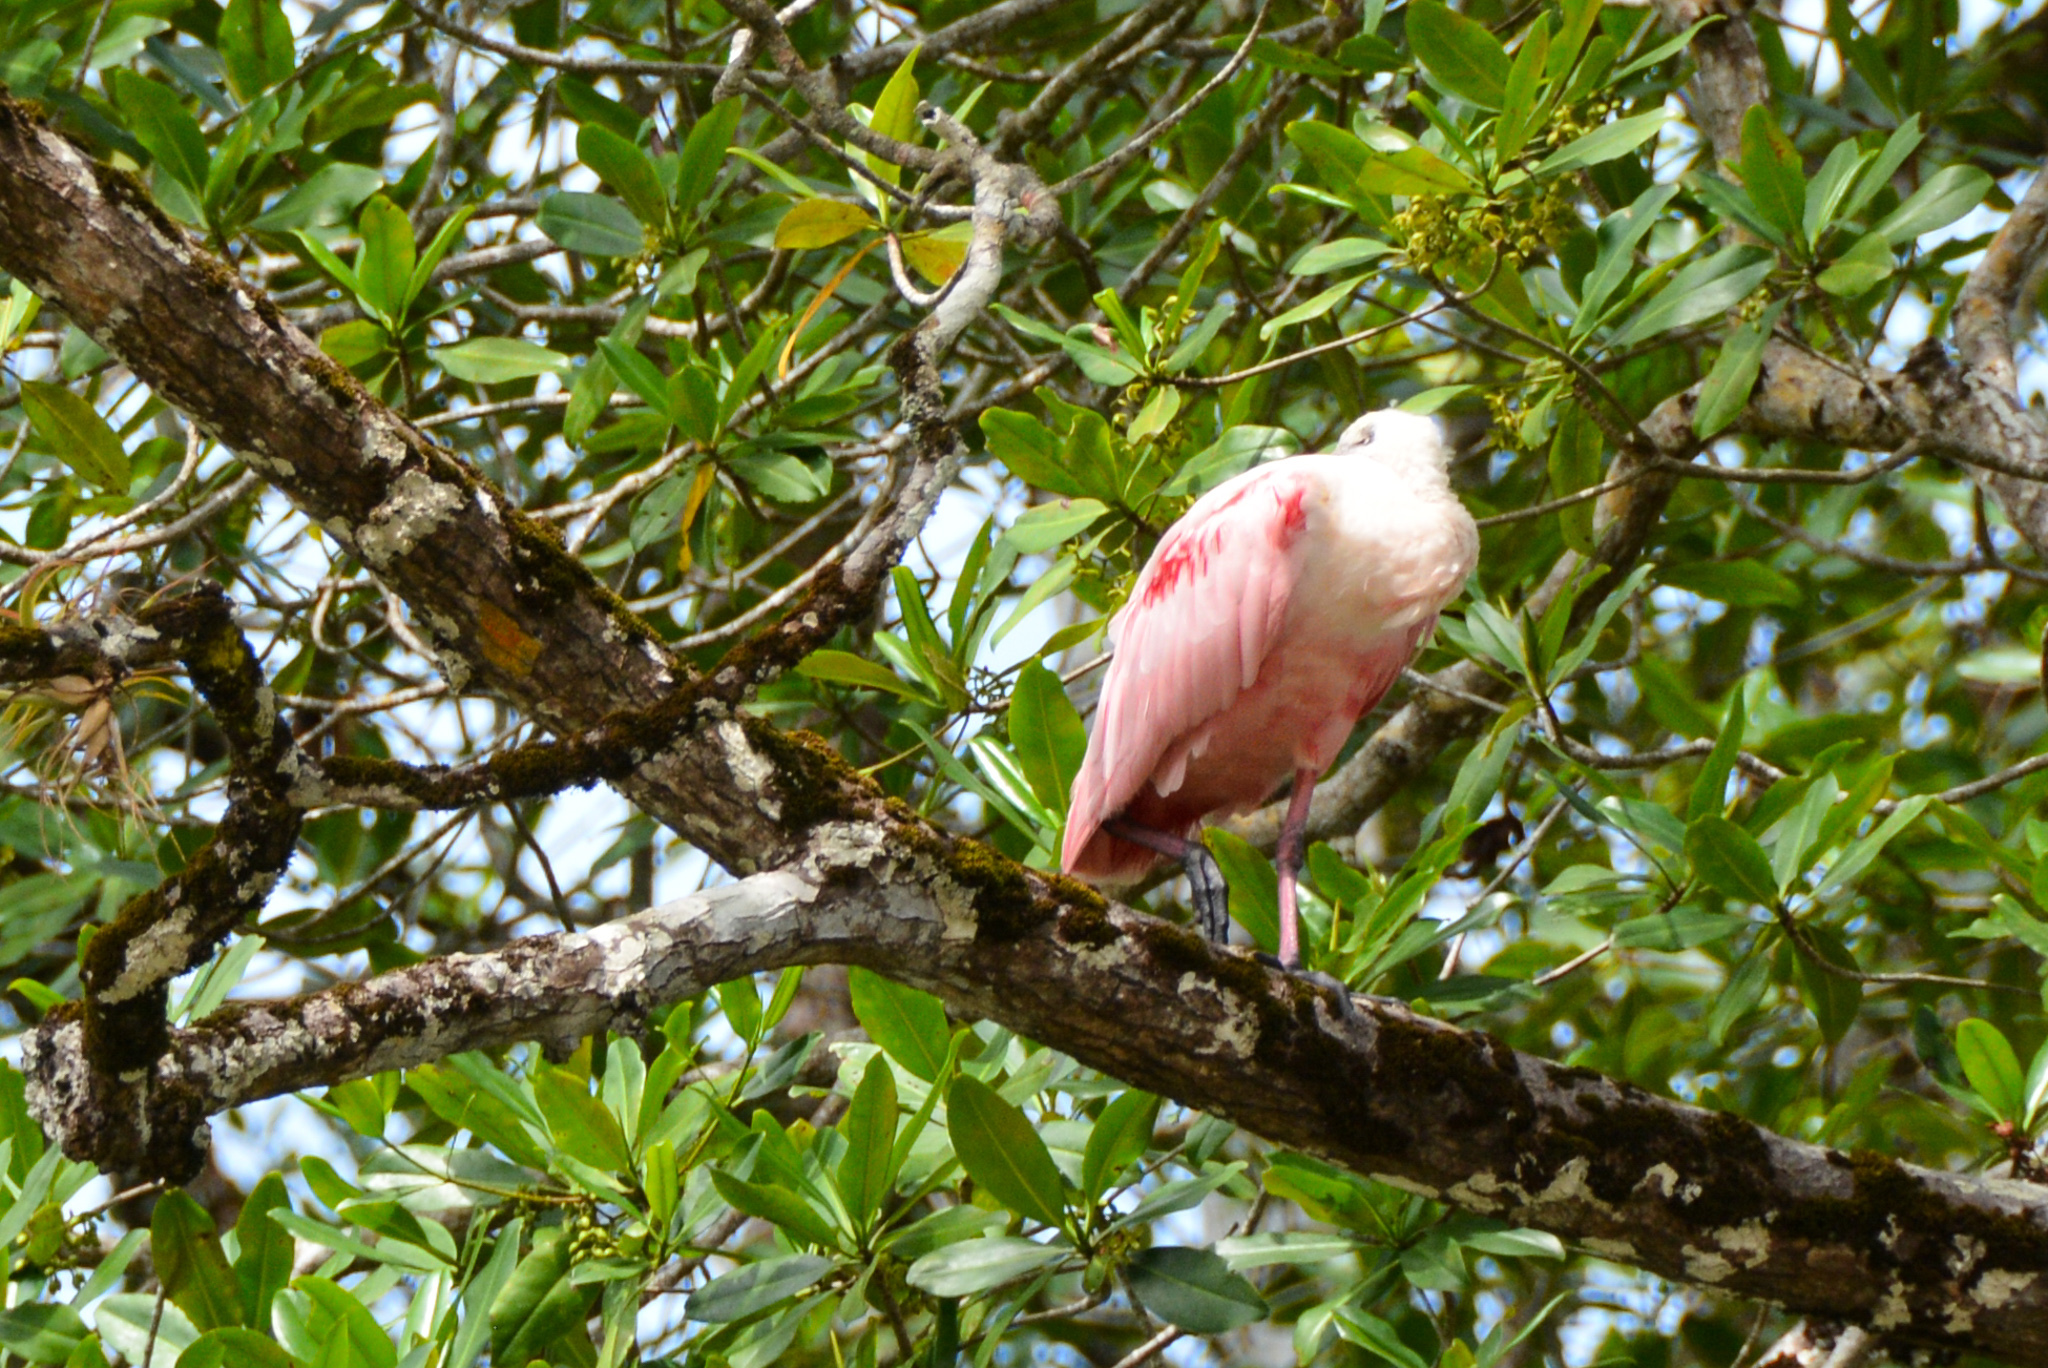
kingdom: Animalia
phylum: Chordata
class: Aves
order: Pelecaniformes
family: Threskiornithidae
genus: Platalea
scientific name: Platalea ajaja
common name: Roseate spoonbill
